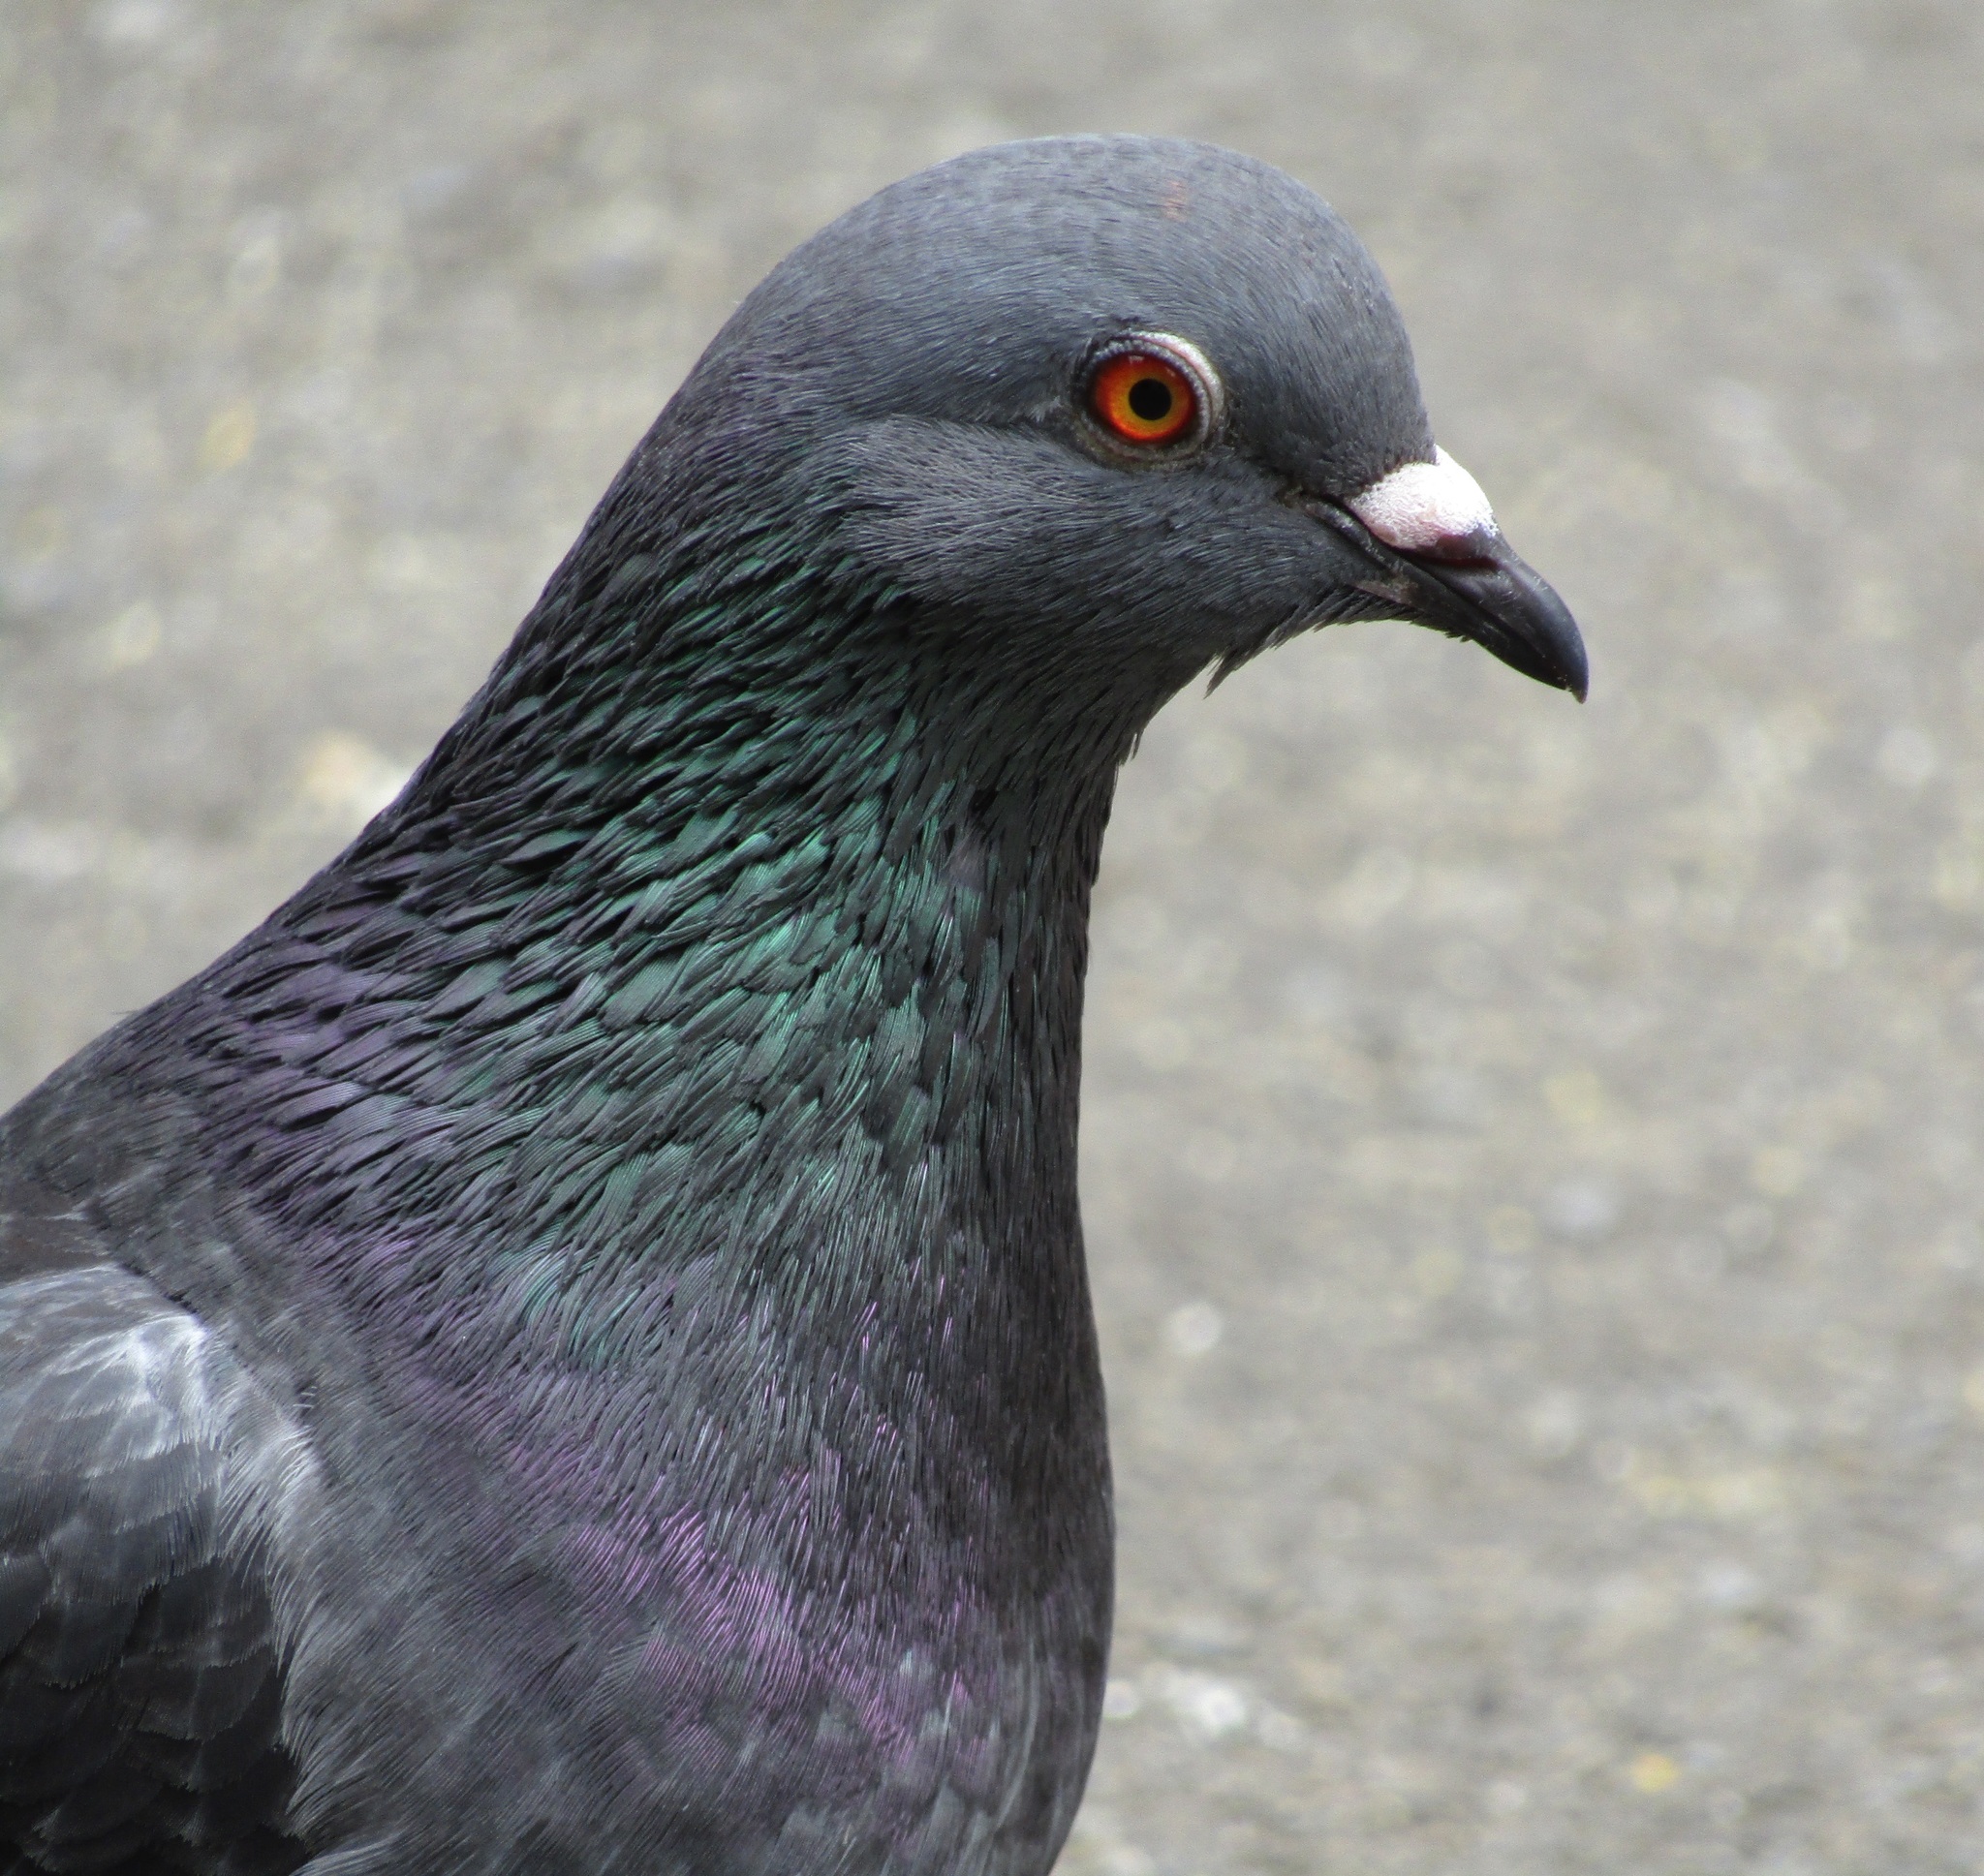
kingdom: Animalia
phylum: Chordata
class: Aves
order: Columbiformes
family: Columbidae
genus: Columba
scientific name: Columba livia
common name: Rock pigeon
